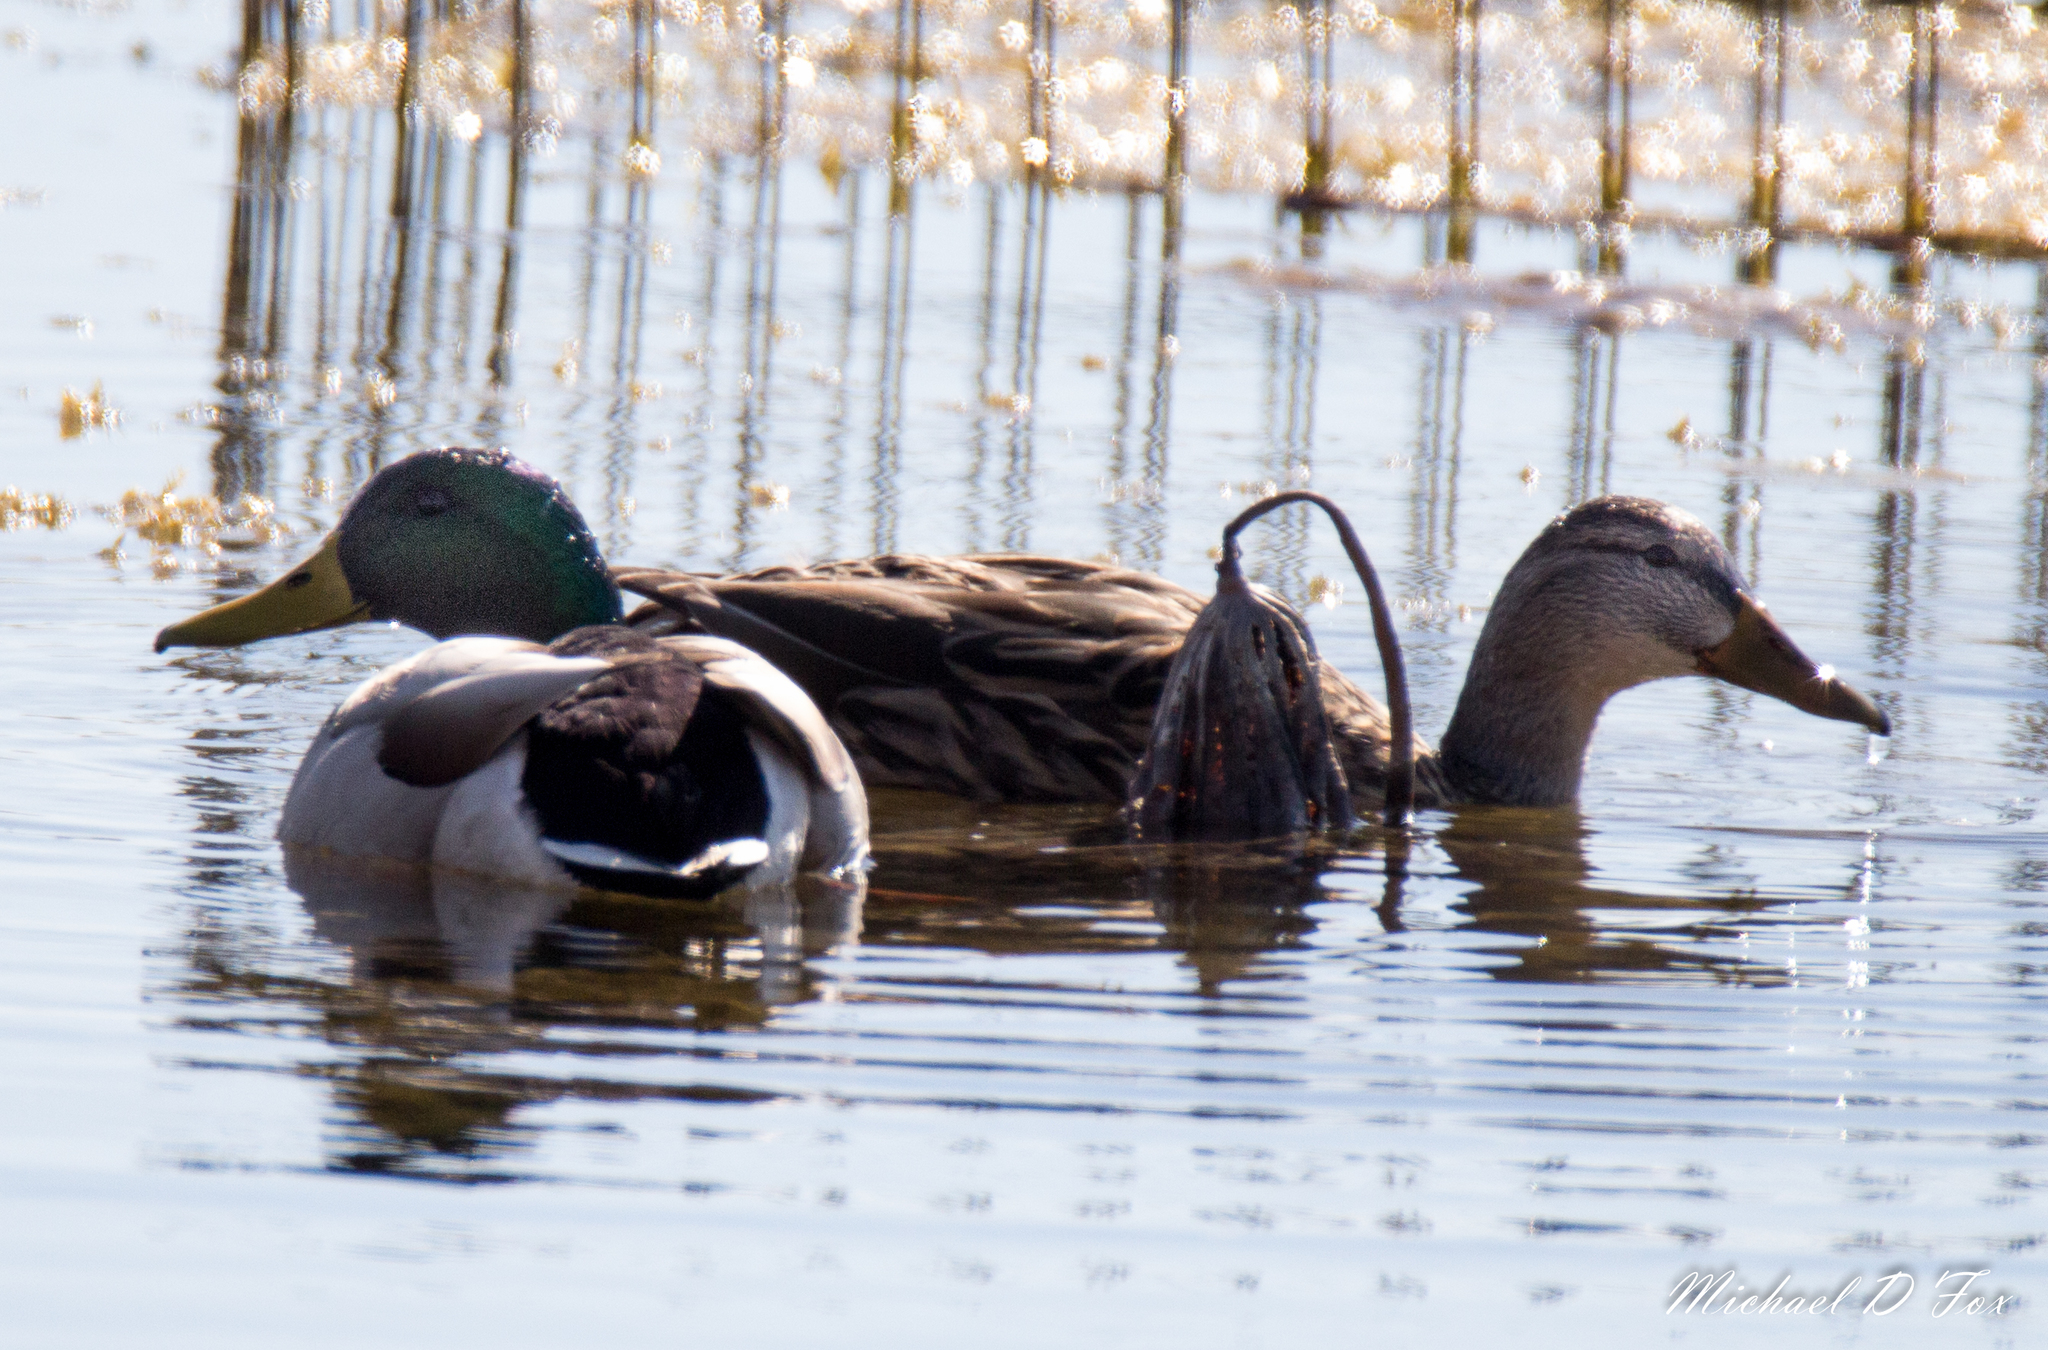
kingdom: Animalia
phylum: Chordata
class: Aves
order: Anseriformes
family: Anatidae
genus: Anas
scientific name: Anas platyrhynchos
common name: Mallard
